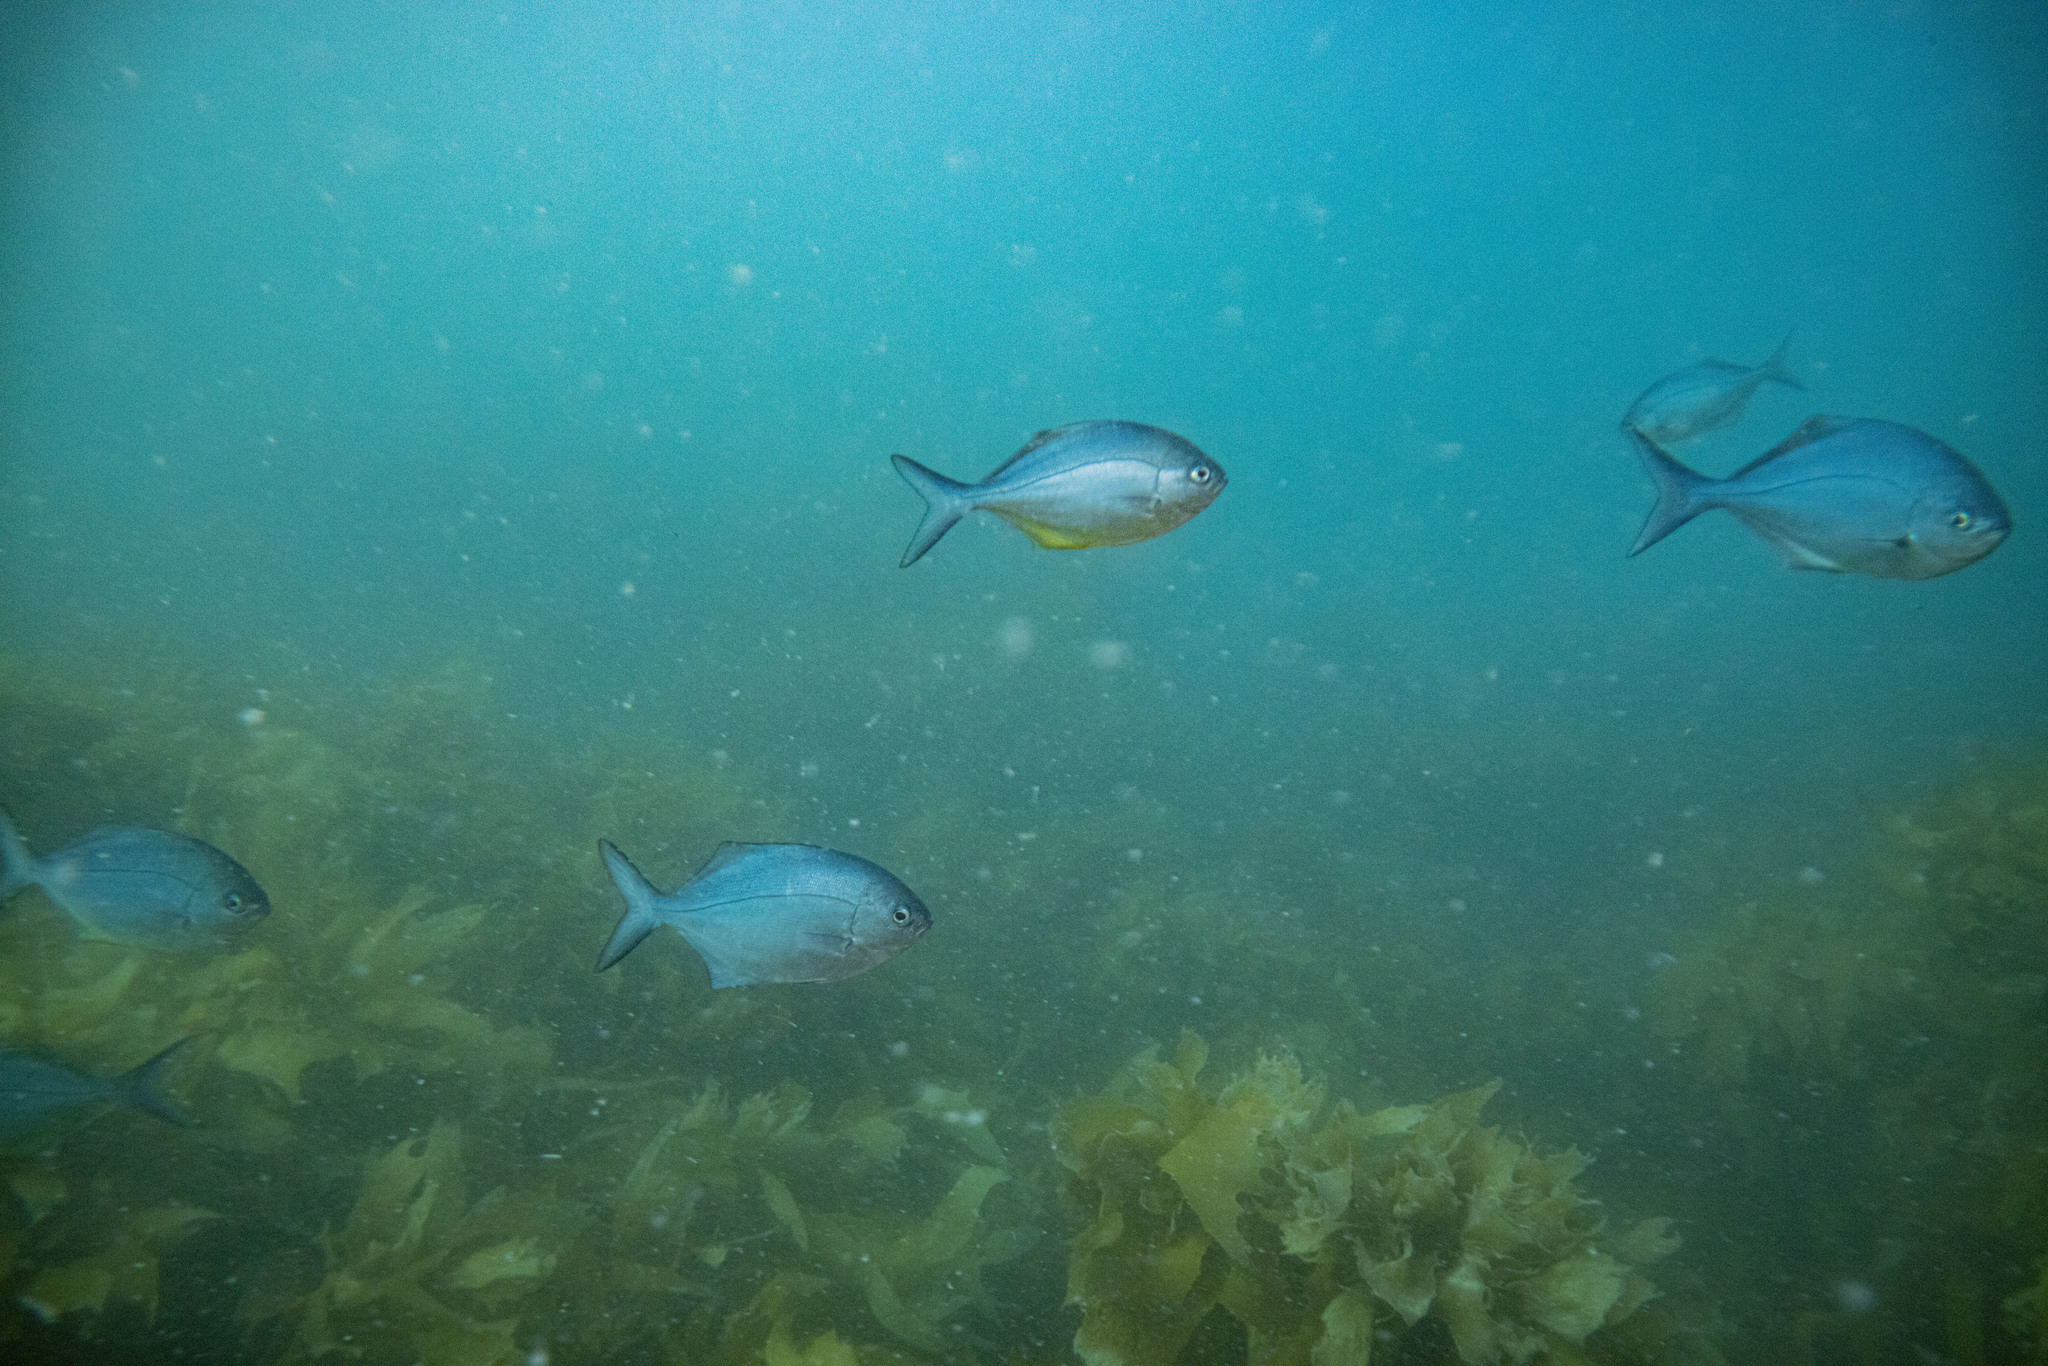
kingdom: Animalia
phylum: Chordata
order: Perciformes
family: Kyphosidae
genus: Scorpis
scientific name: Scorpis violacea
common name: Blue maomao
